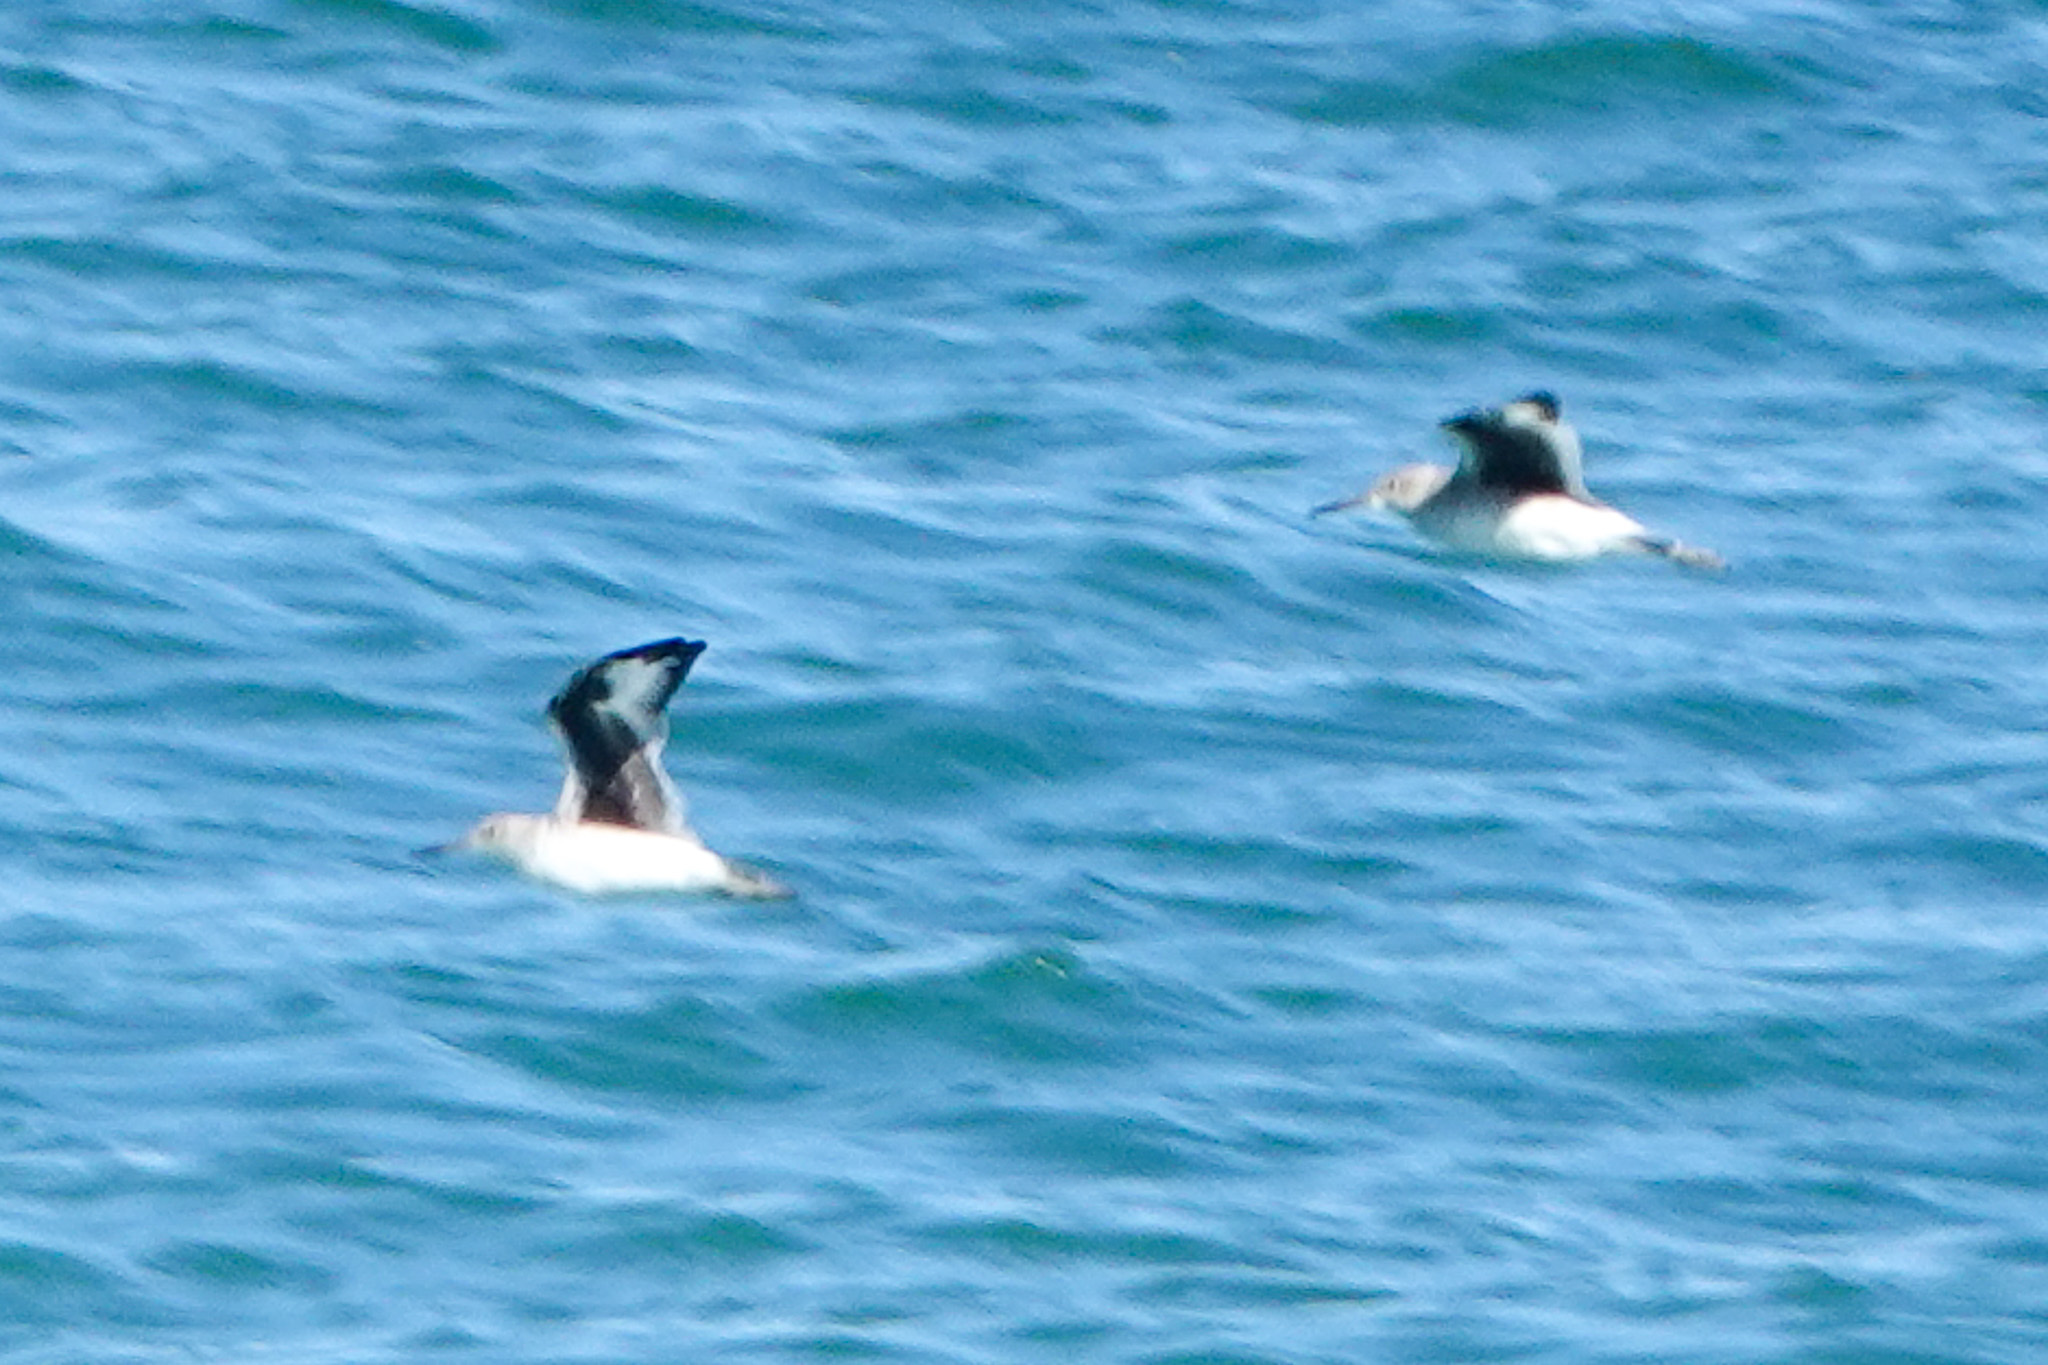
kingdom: Animalia
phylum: Chordata
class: Aves
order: Charadriiformes
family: Scolopacidae
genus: Tringa
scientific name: Tringa semipalmata
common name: Willet
